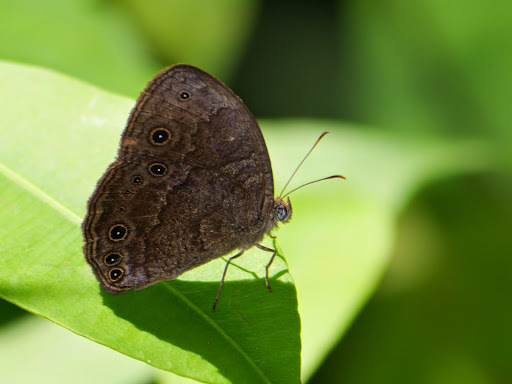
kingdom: Animalia
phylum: Arthropoda
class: Insecta
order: Lepidoptera
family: Nymphalidae
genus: Mycalesis
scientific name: Mycalesis vulgaris
